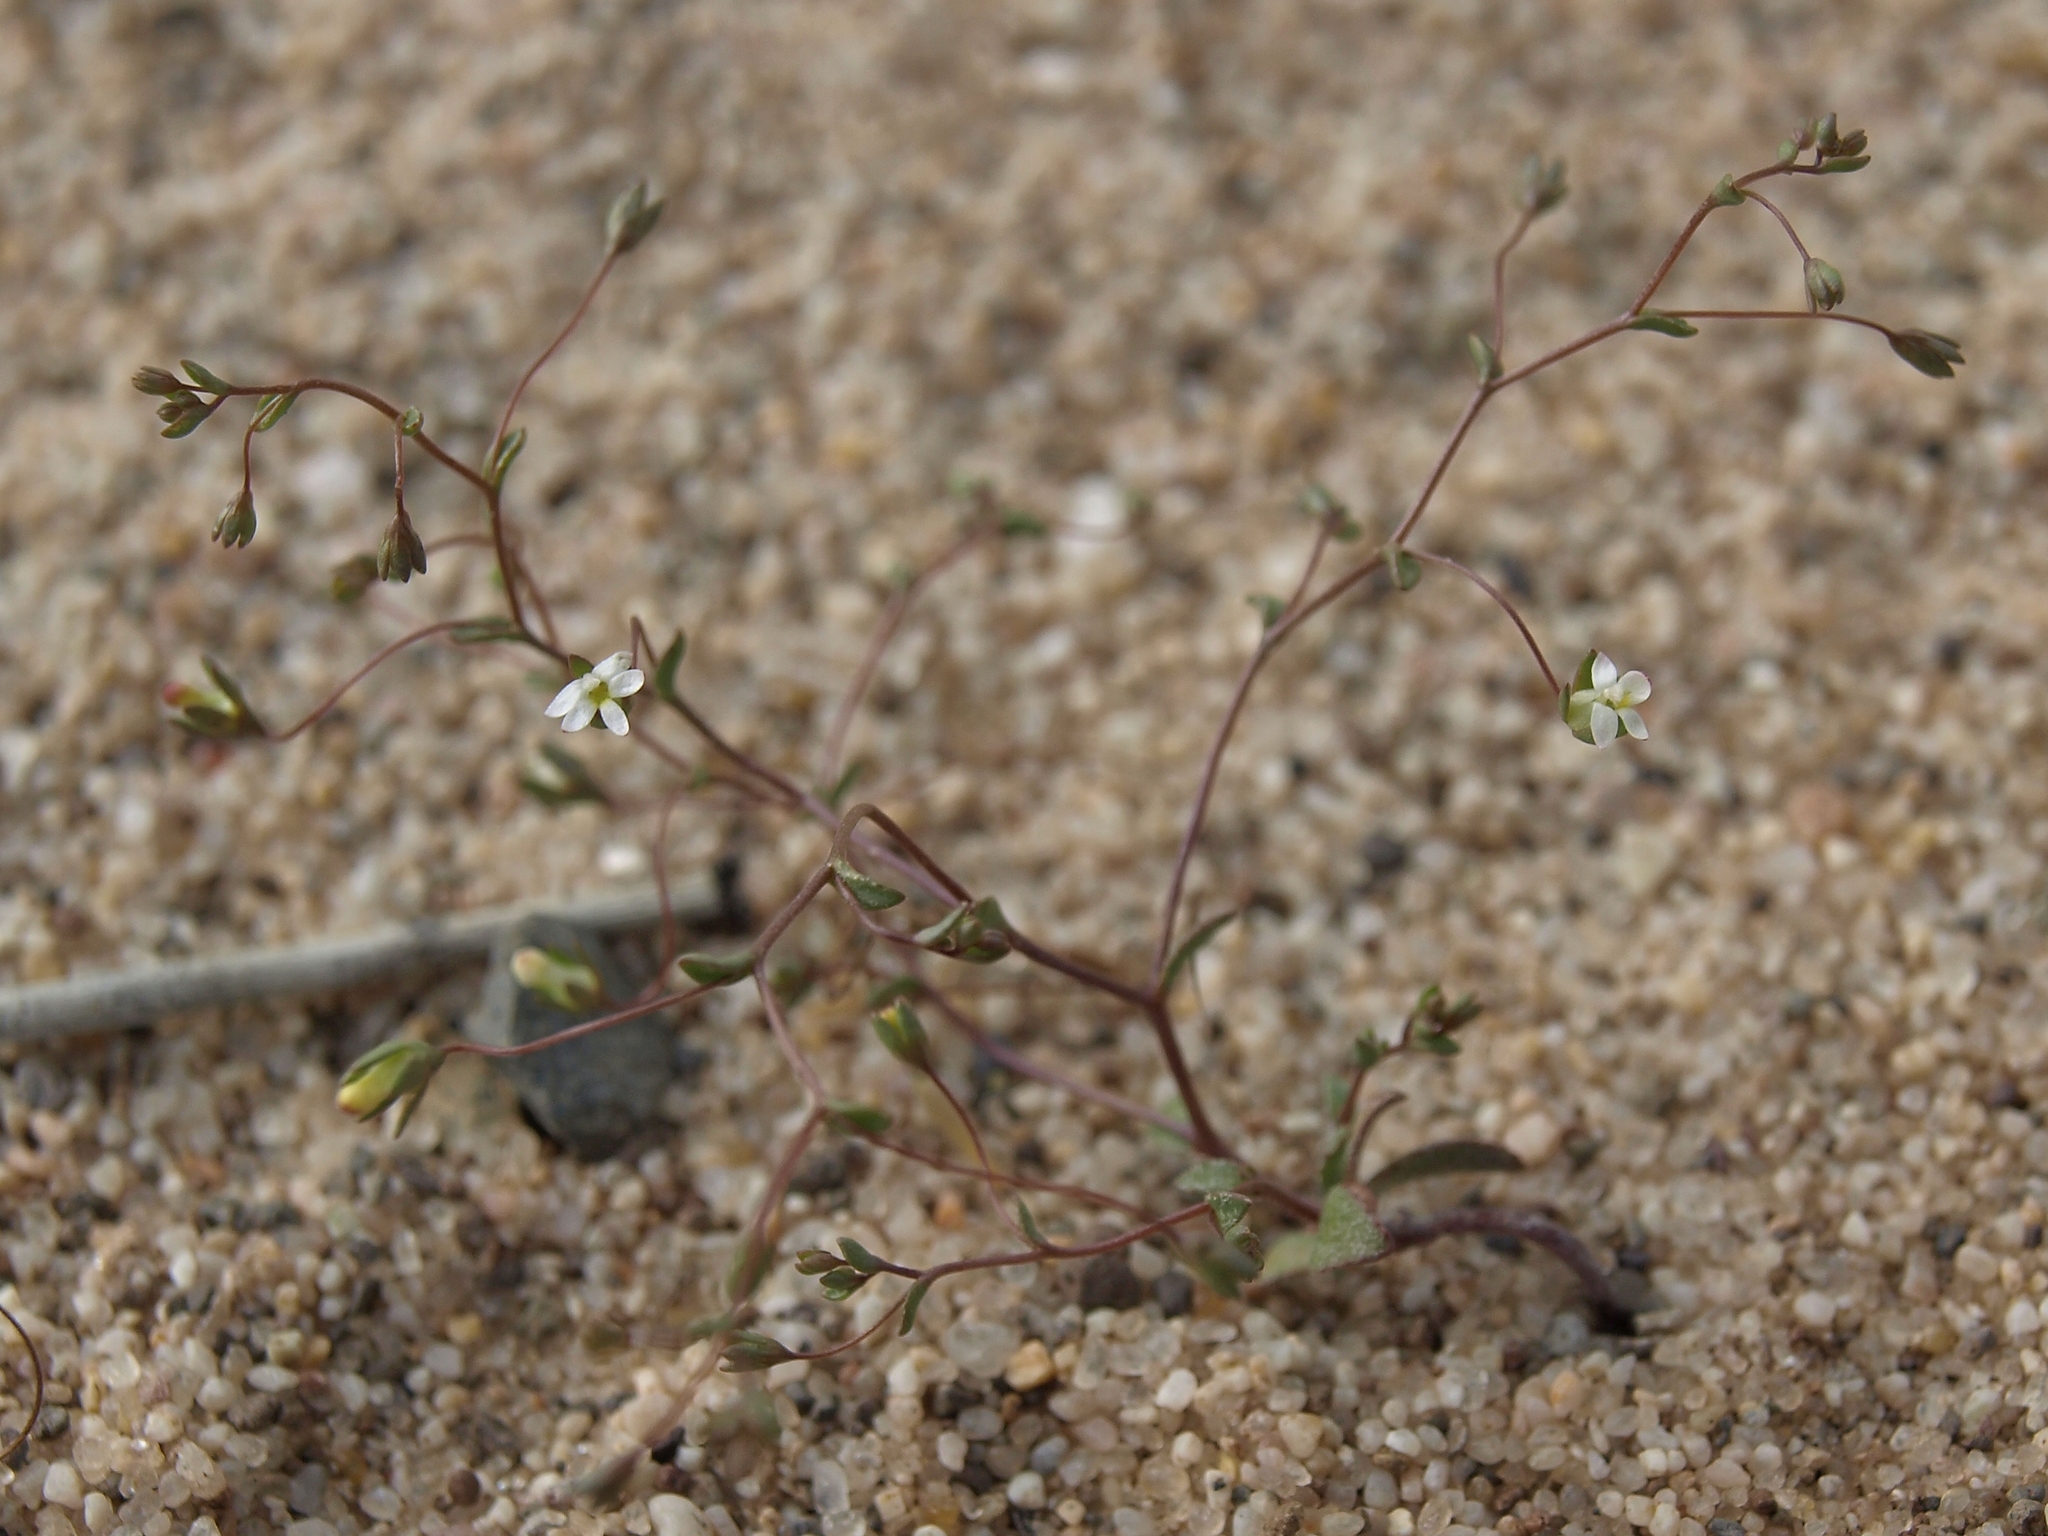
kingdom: Plantae
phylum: Tracheophyta
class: Magnoliopsida
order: Asterales
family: Campanulaceae
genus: Nemacladus
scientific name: Nemacladus sigmoideus
